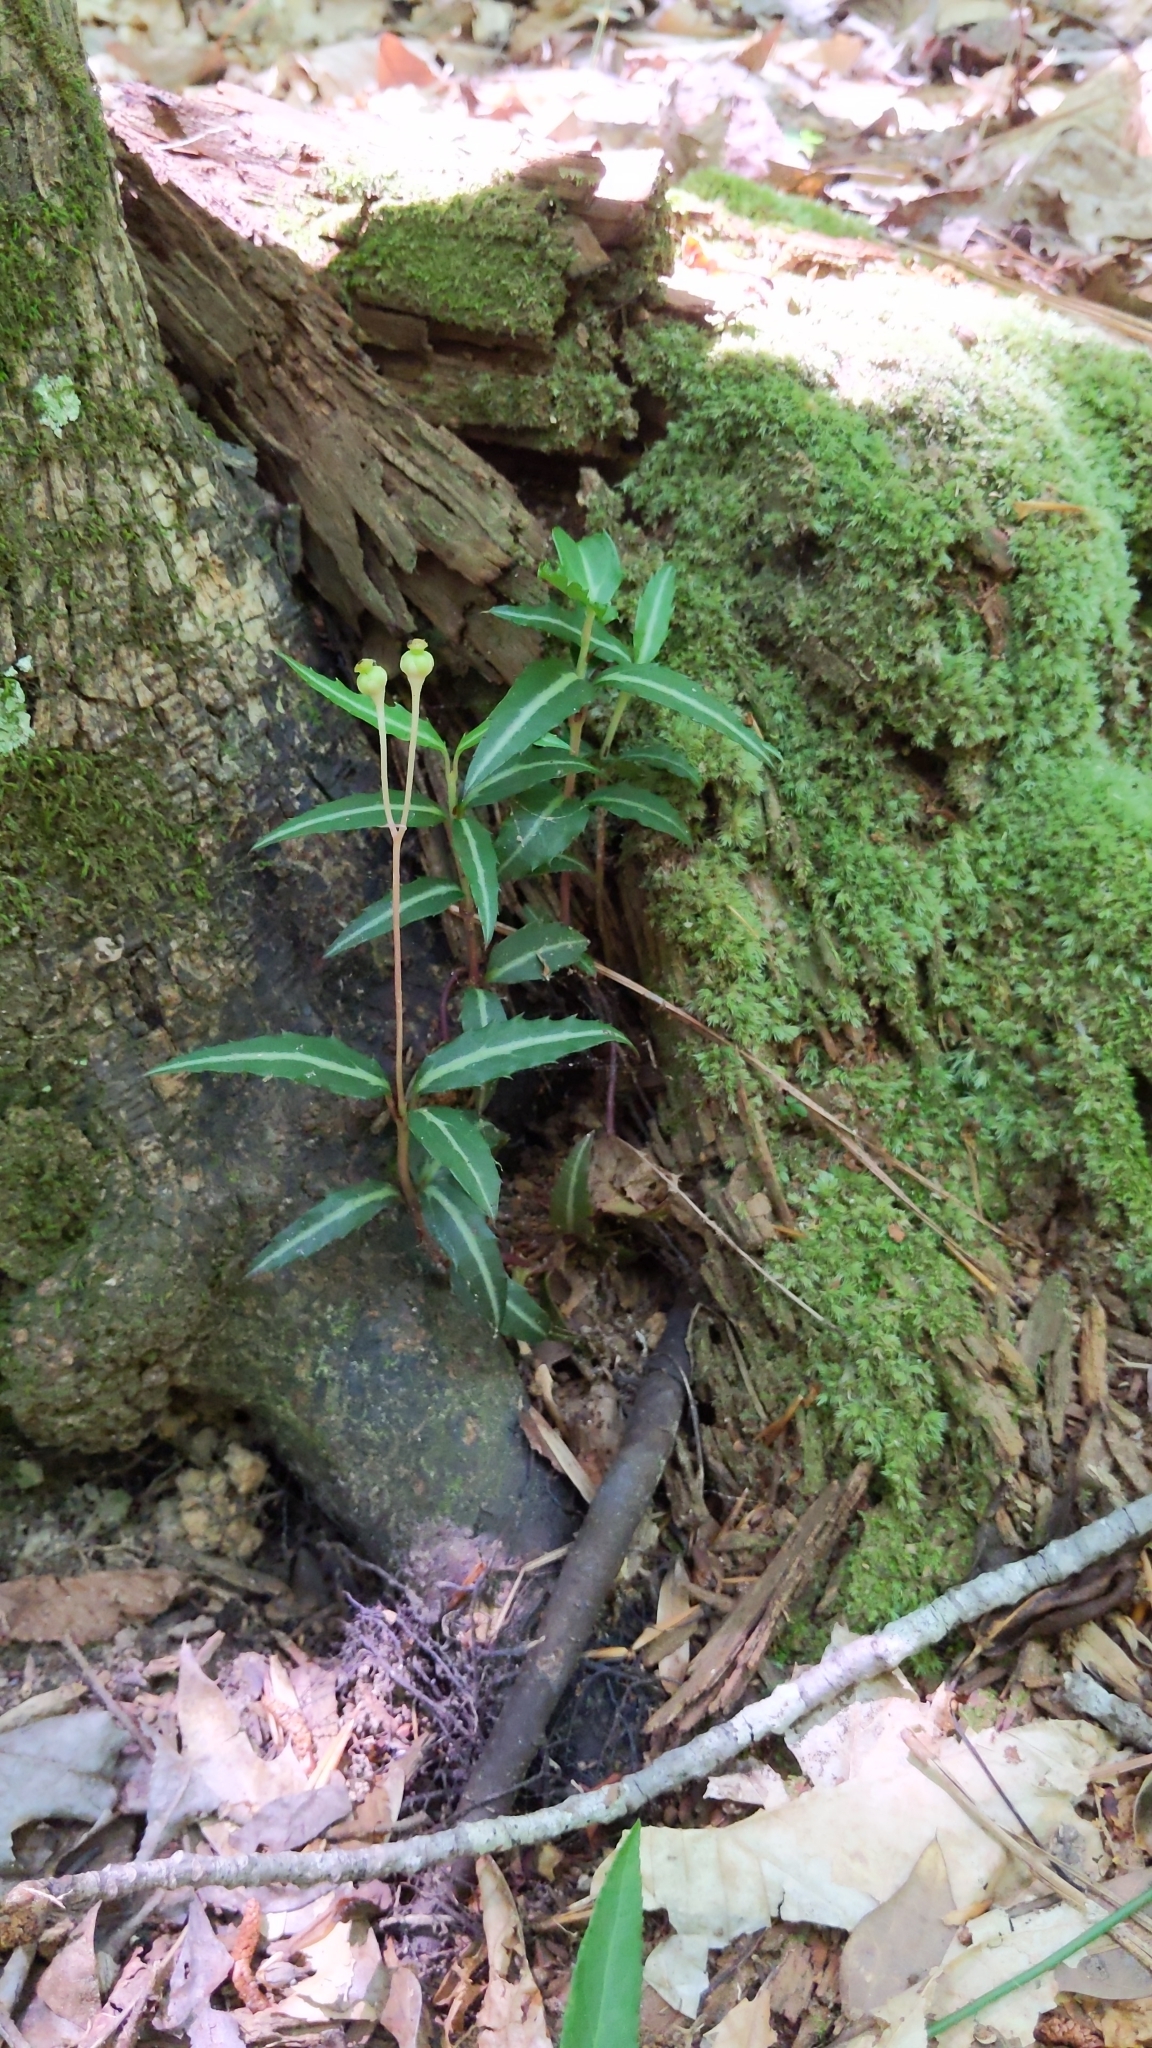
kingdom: Plantae
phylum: Tracheophyta
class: Magnoliopsida
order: Ericales
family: Ericaceae
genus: Chimaphila
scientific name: Chimaphila maculata
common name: Spotted pipsissewa
